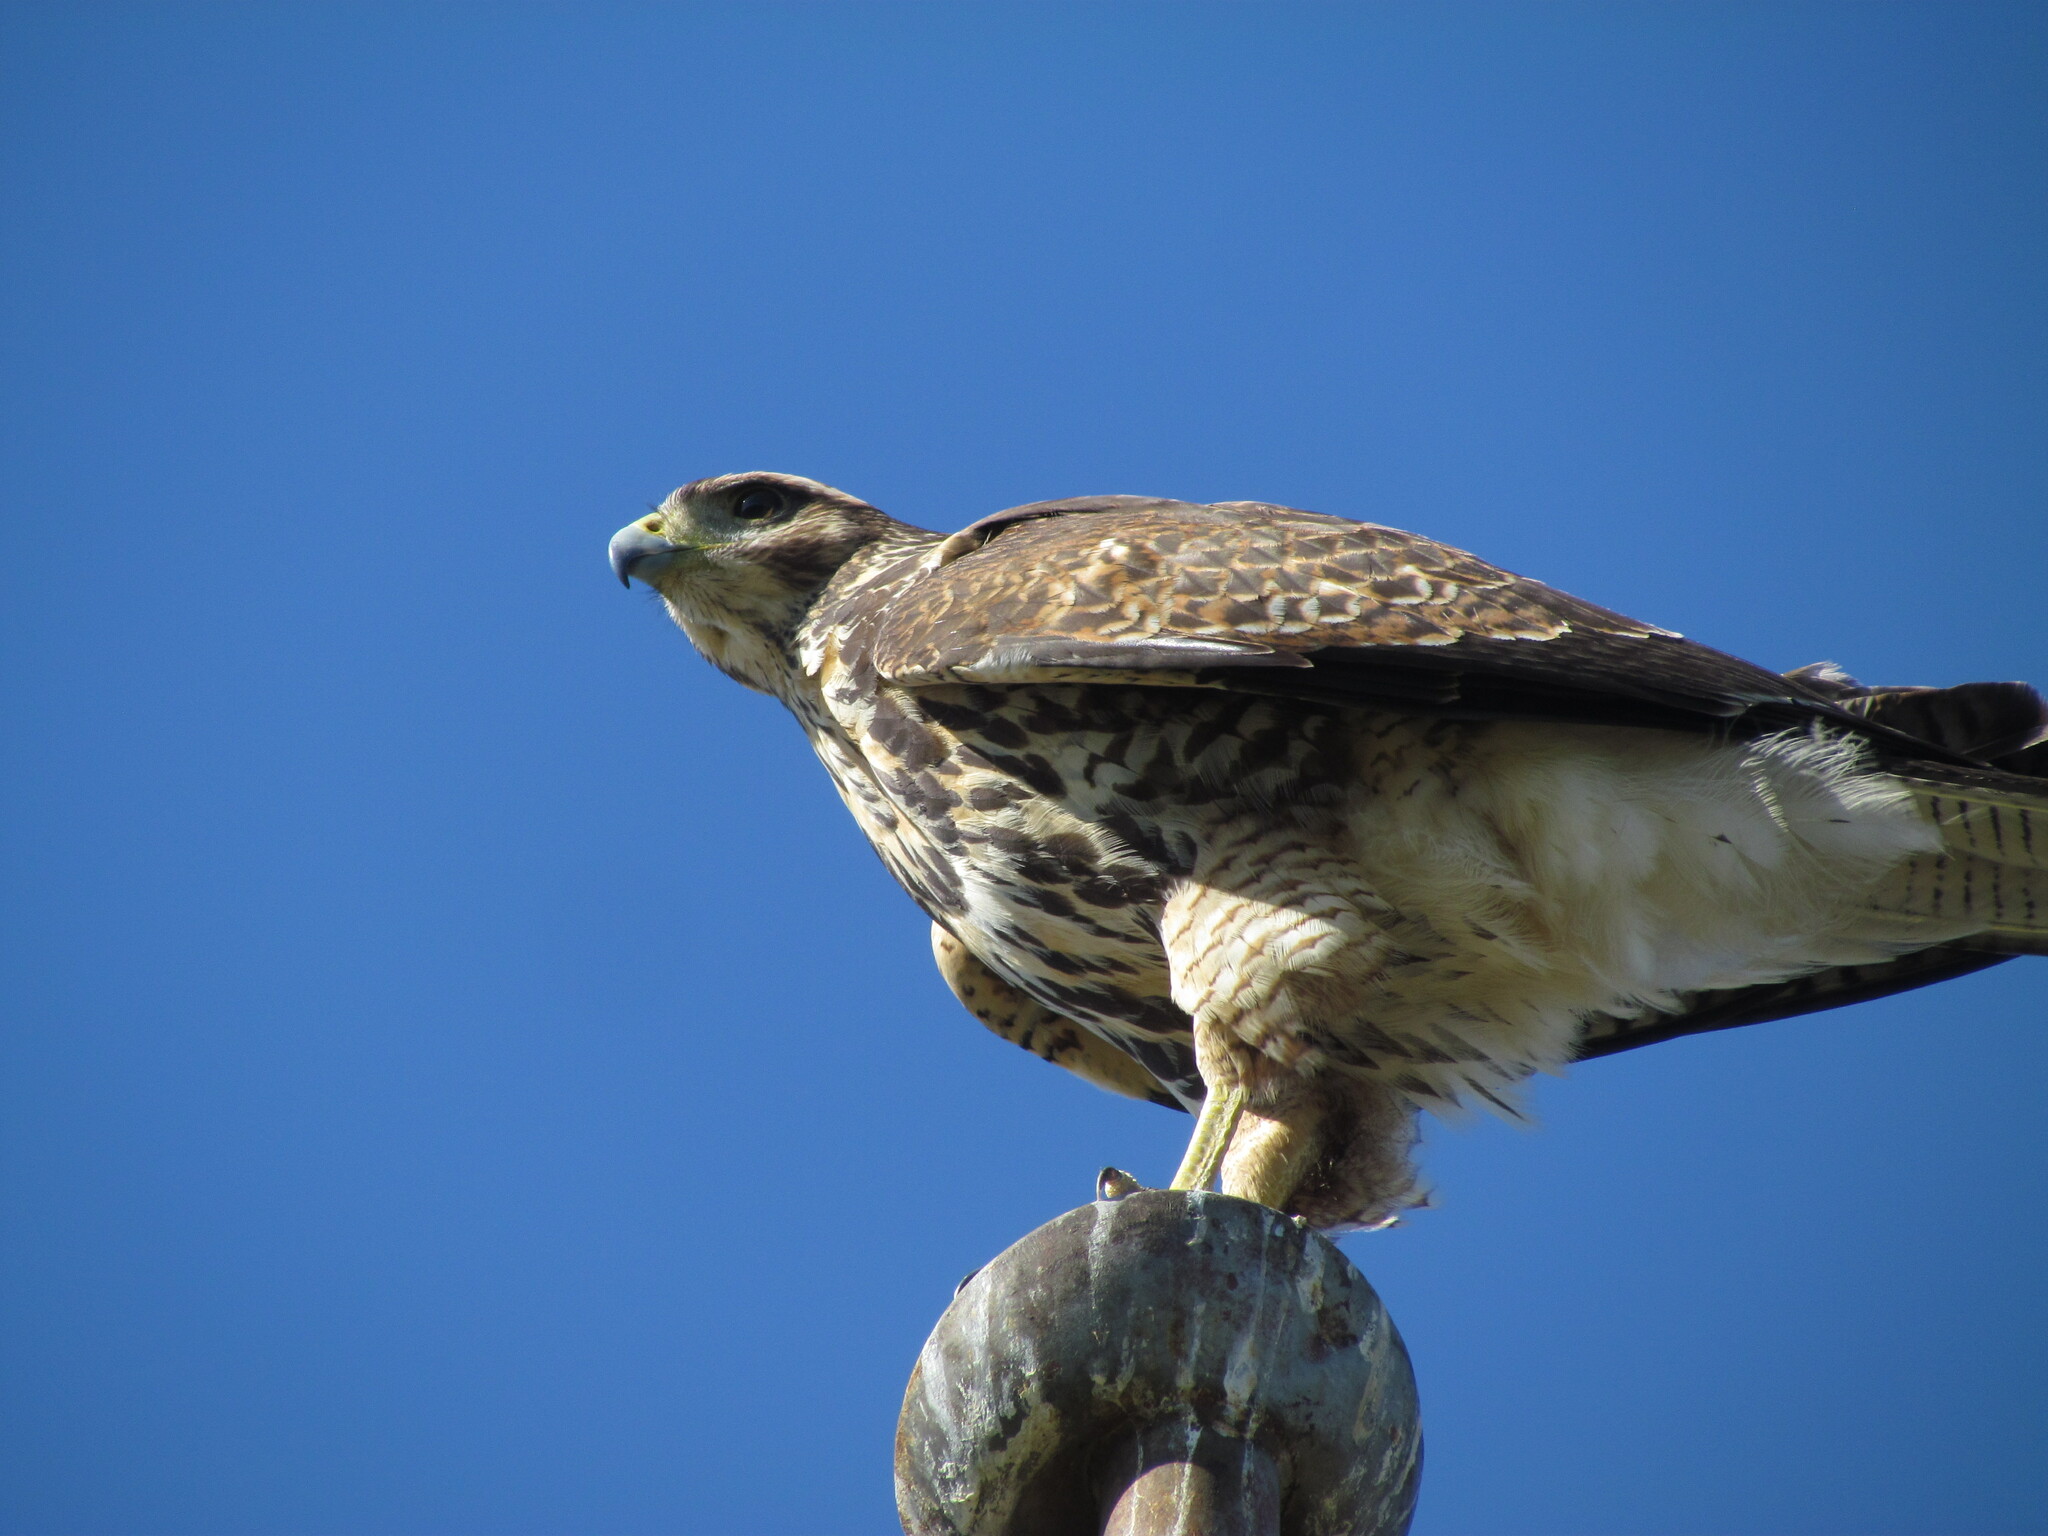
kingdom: Animalia
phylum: Chordata
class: Aves
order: Accipitriformes
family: Accipitridae
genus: Parabuteo
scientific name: Parabuteo unicinctus
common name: Harris's hawk
